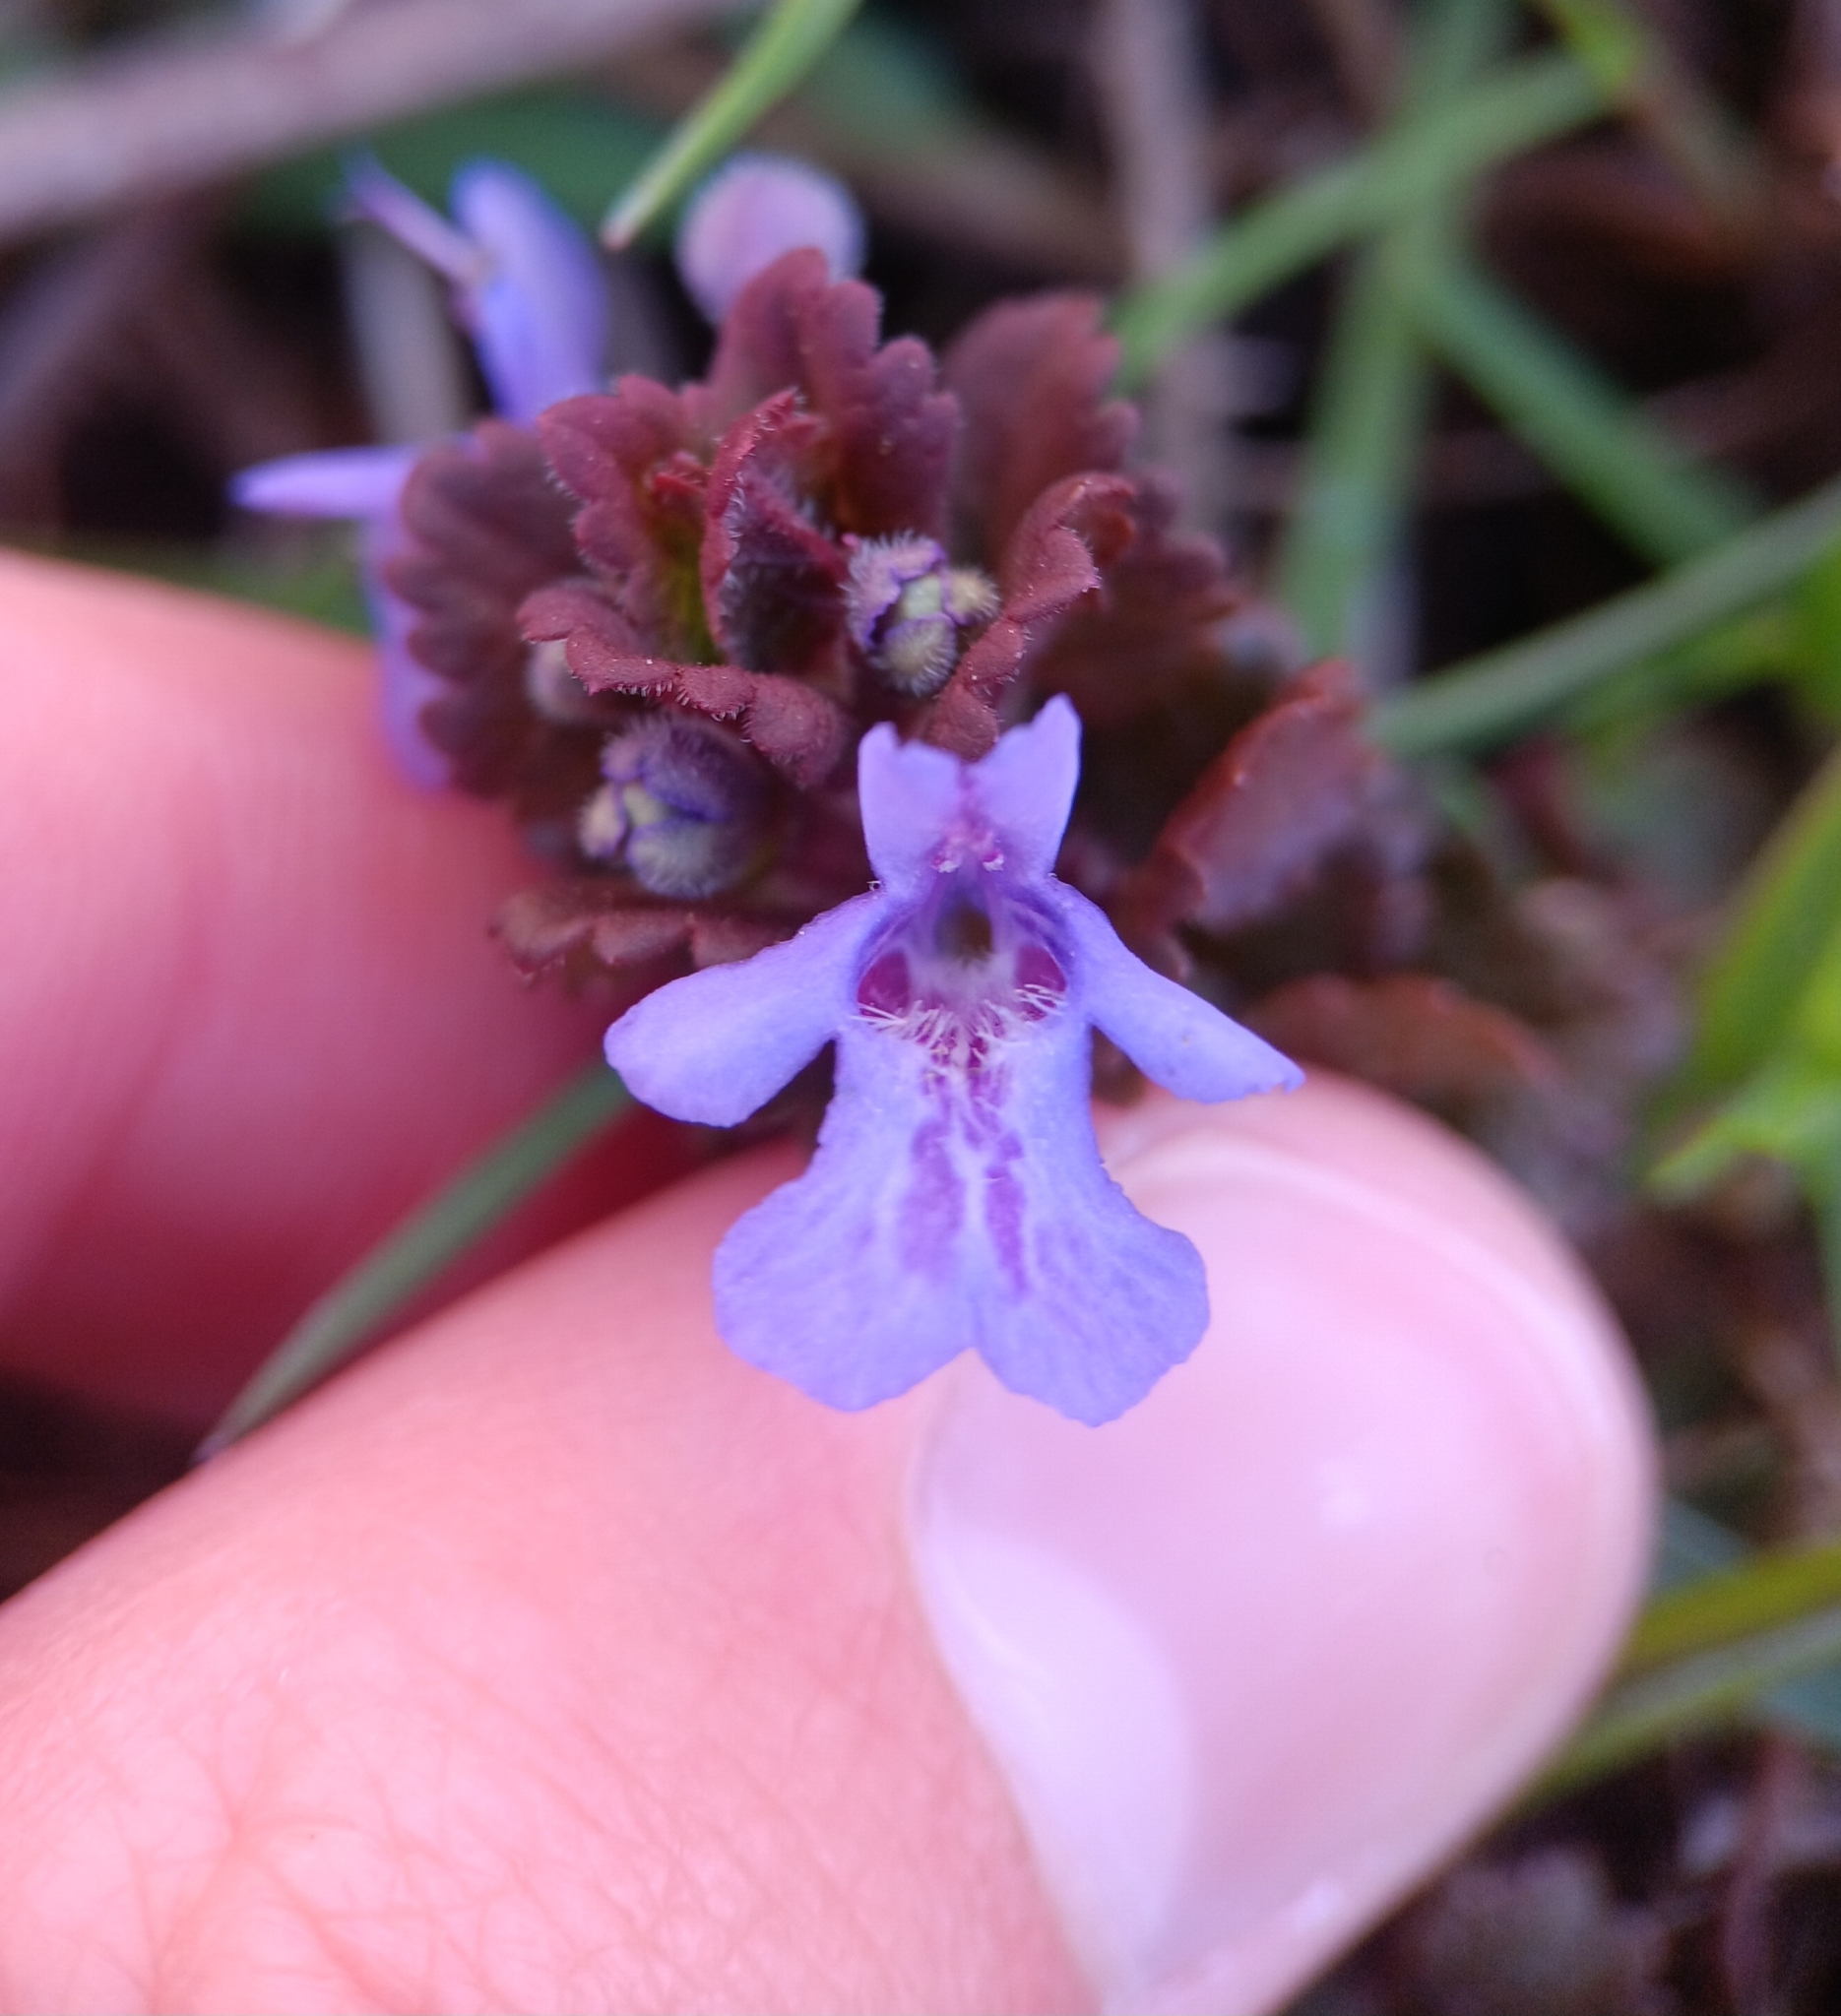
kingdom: Plantae
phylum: Tracheophyta
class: Magnoliopsida
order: Lamiales
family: Lamiaceae
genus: Glechoma
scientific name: Glechoma hederacea
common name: Ground ivy
